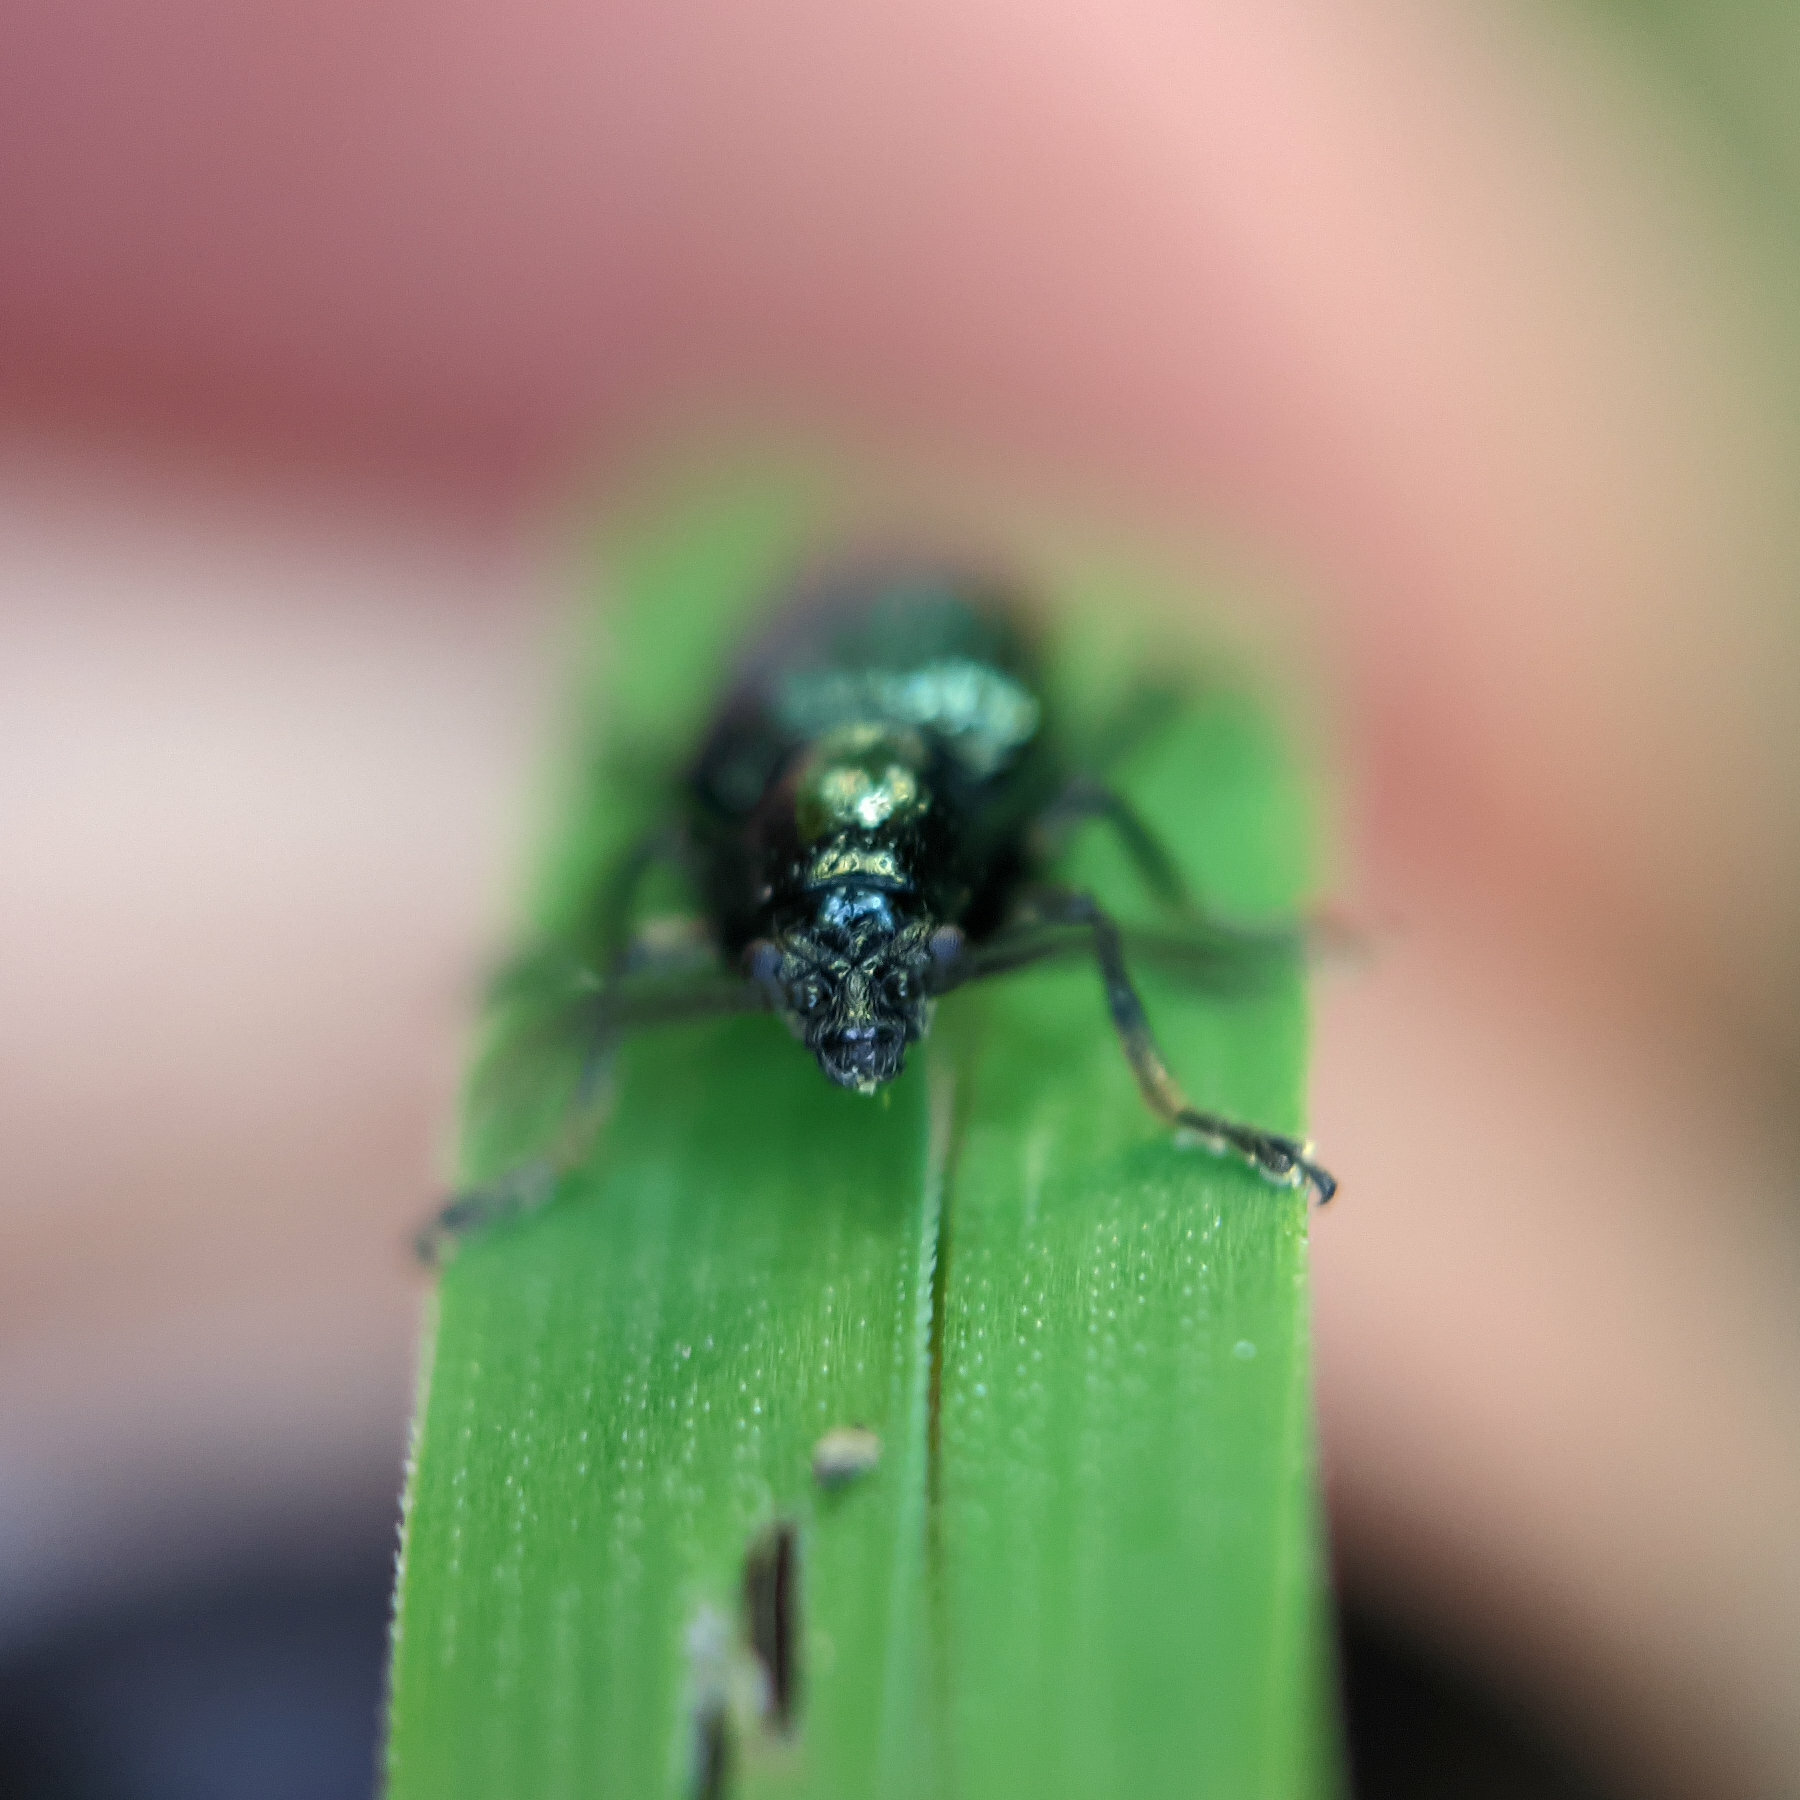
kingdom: Animalia
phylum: Arthropoda
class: Insecta
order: Coleoptera
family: Chrysomelidae
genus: Oulema
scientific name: Oulema gallaeciana
